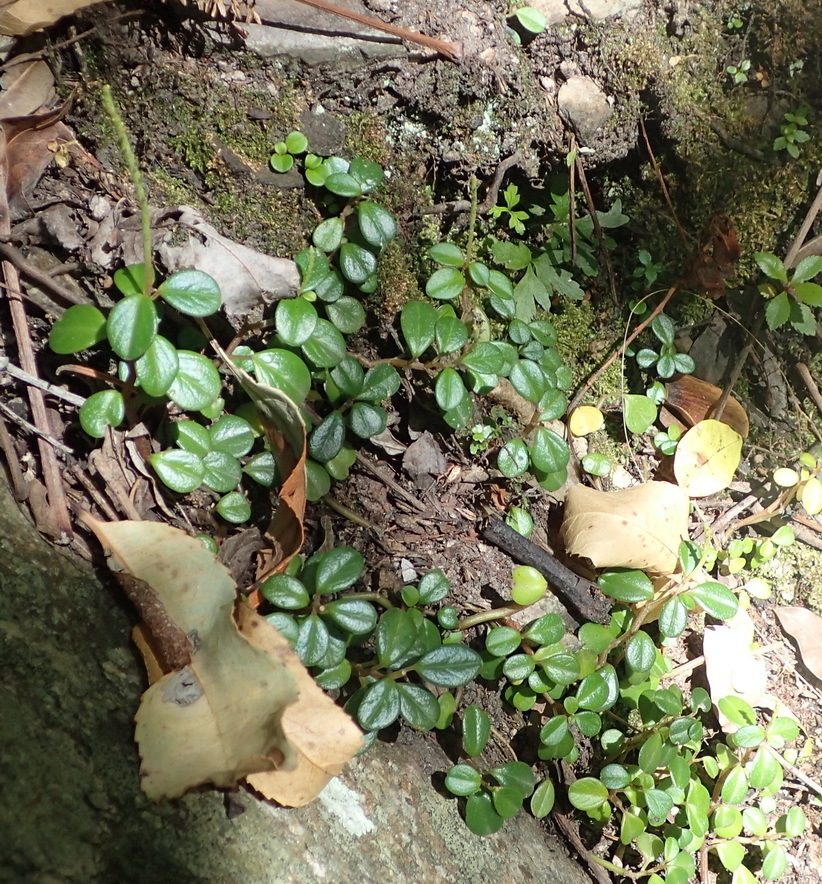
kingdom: Plantae
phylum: Tracheophyta
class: Magnoliopsida
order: Piperales
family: Piperaceae
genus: Peperomia
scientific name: Peperomia retusa
